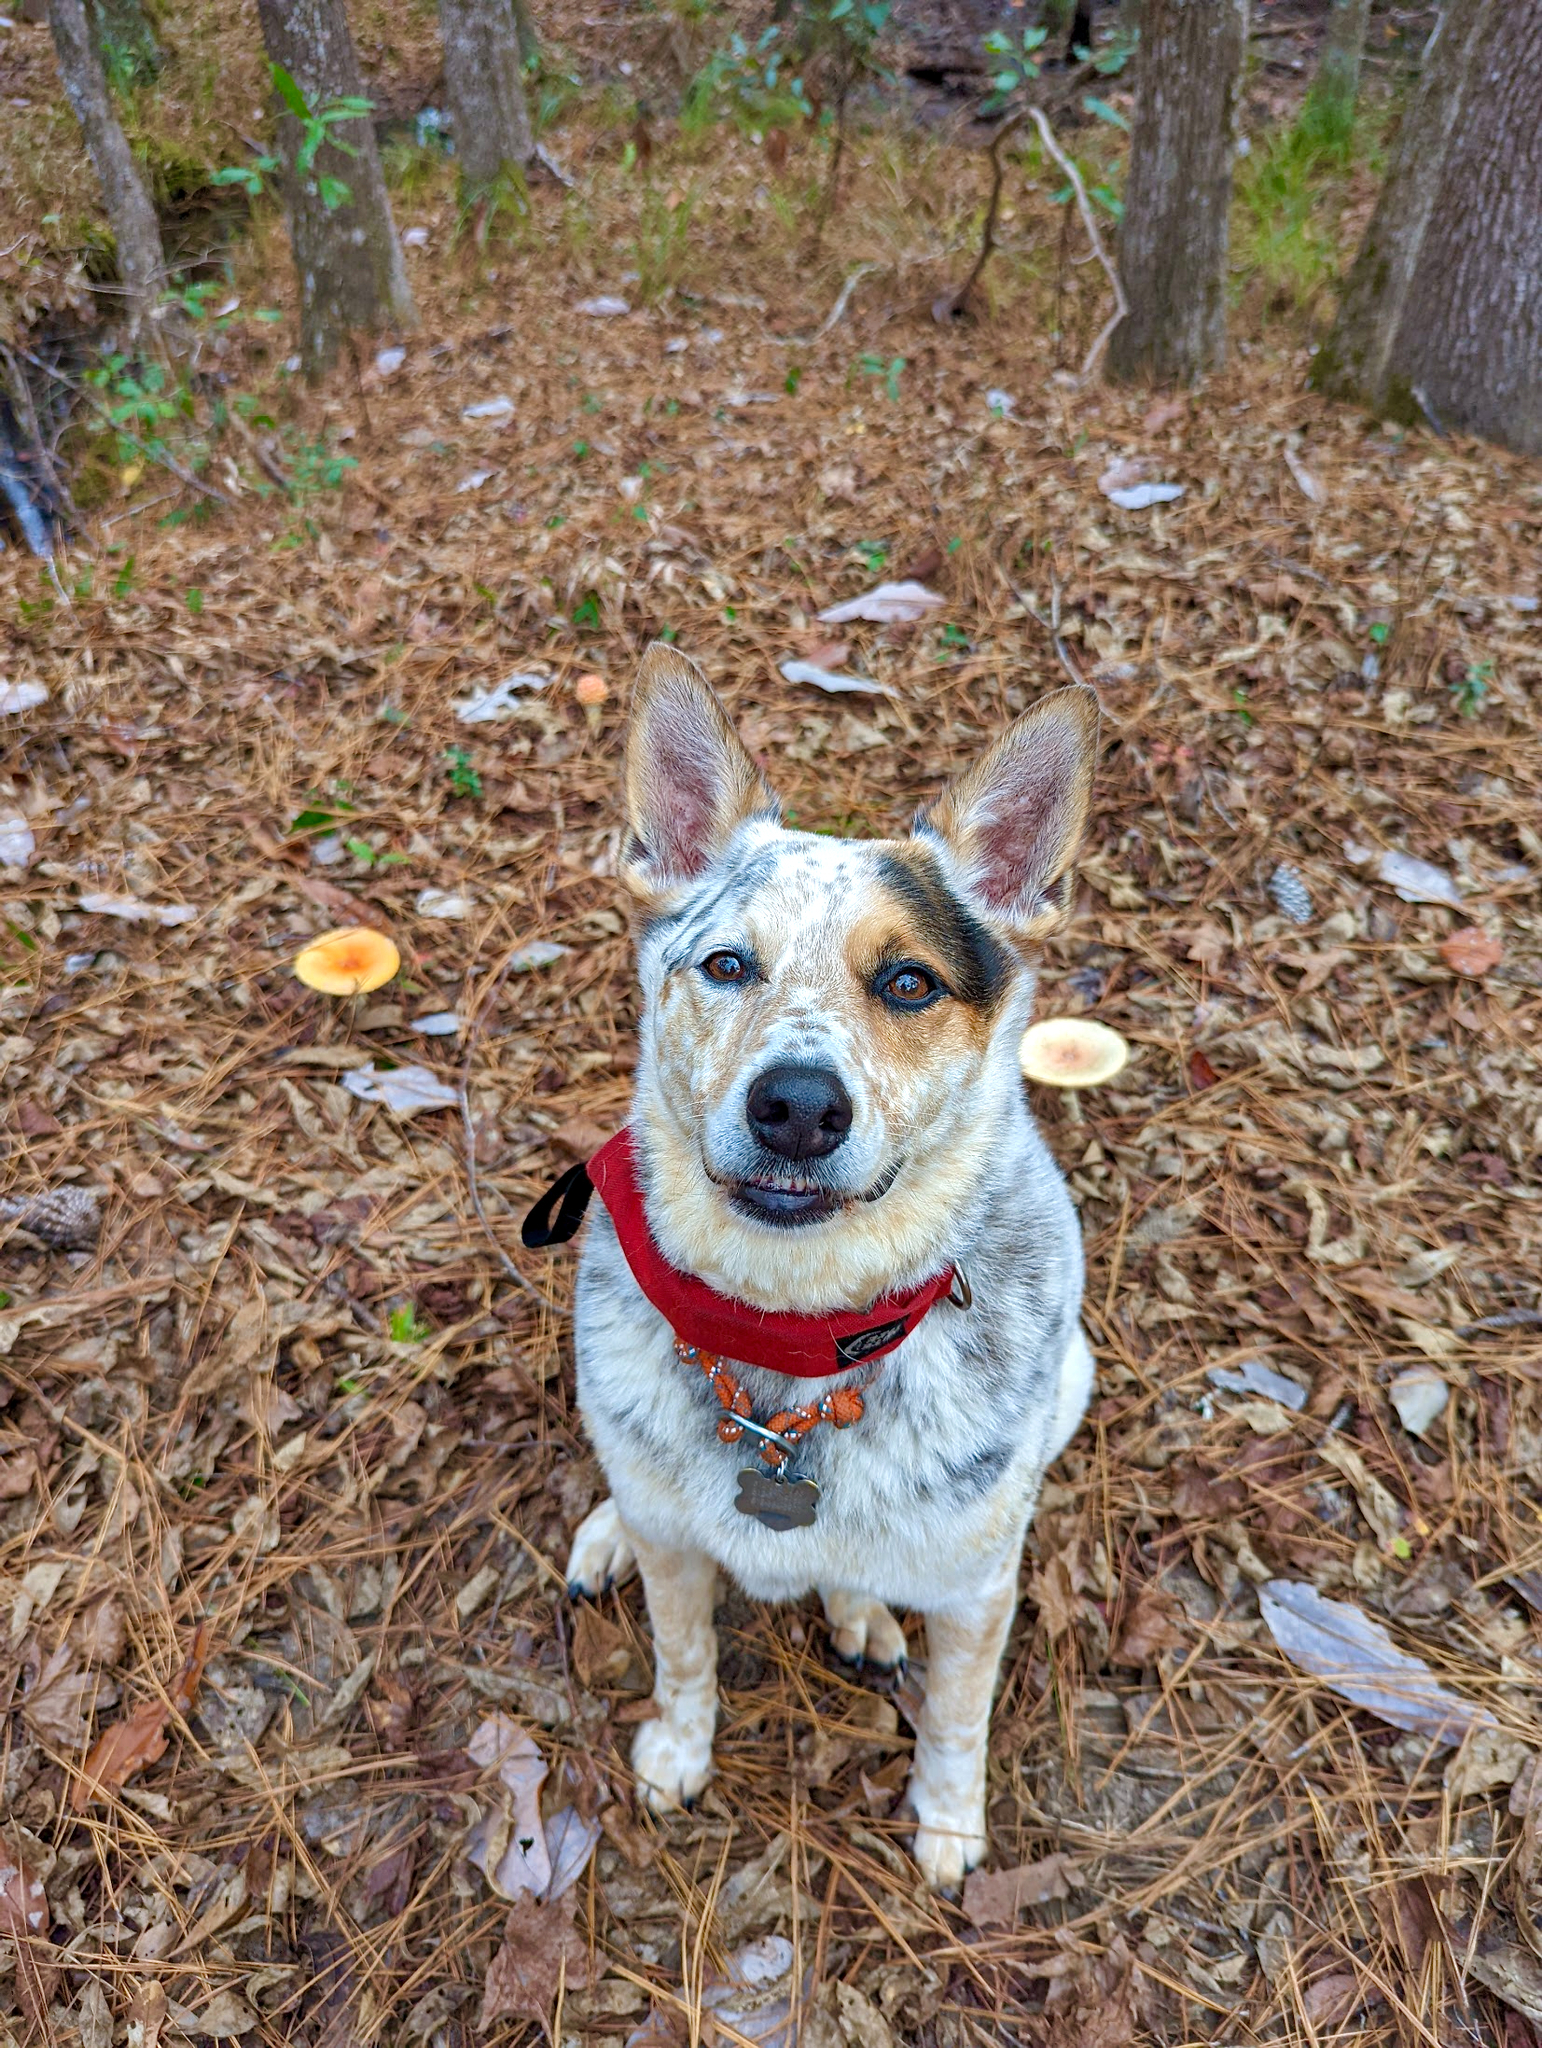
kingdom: Fungi
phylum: Basidiomycota
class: Agaricomycetes
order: Agaricales
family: Amanitaceae
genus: Amanita
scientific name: Amanita persicina
